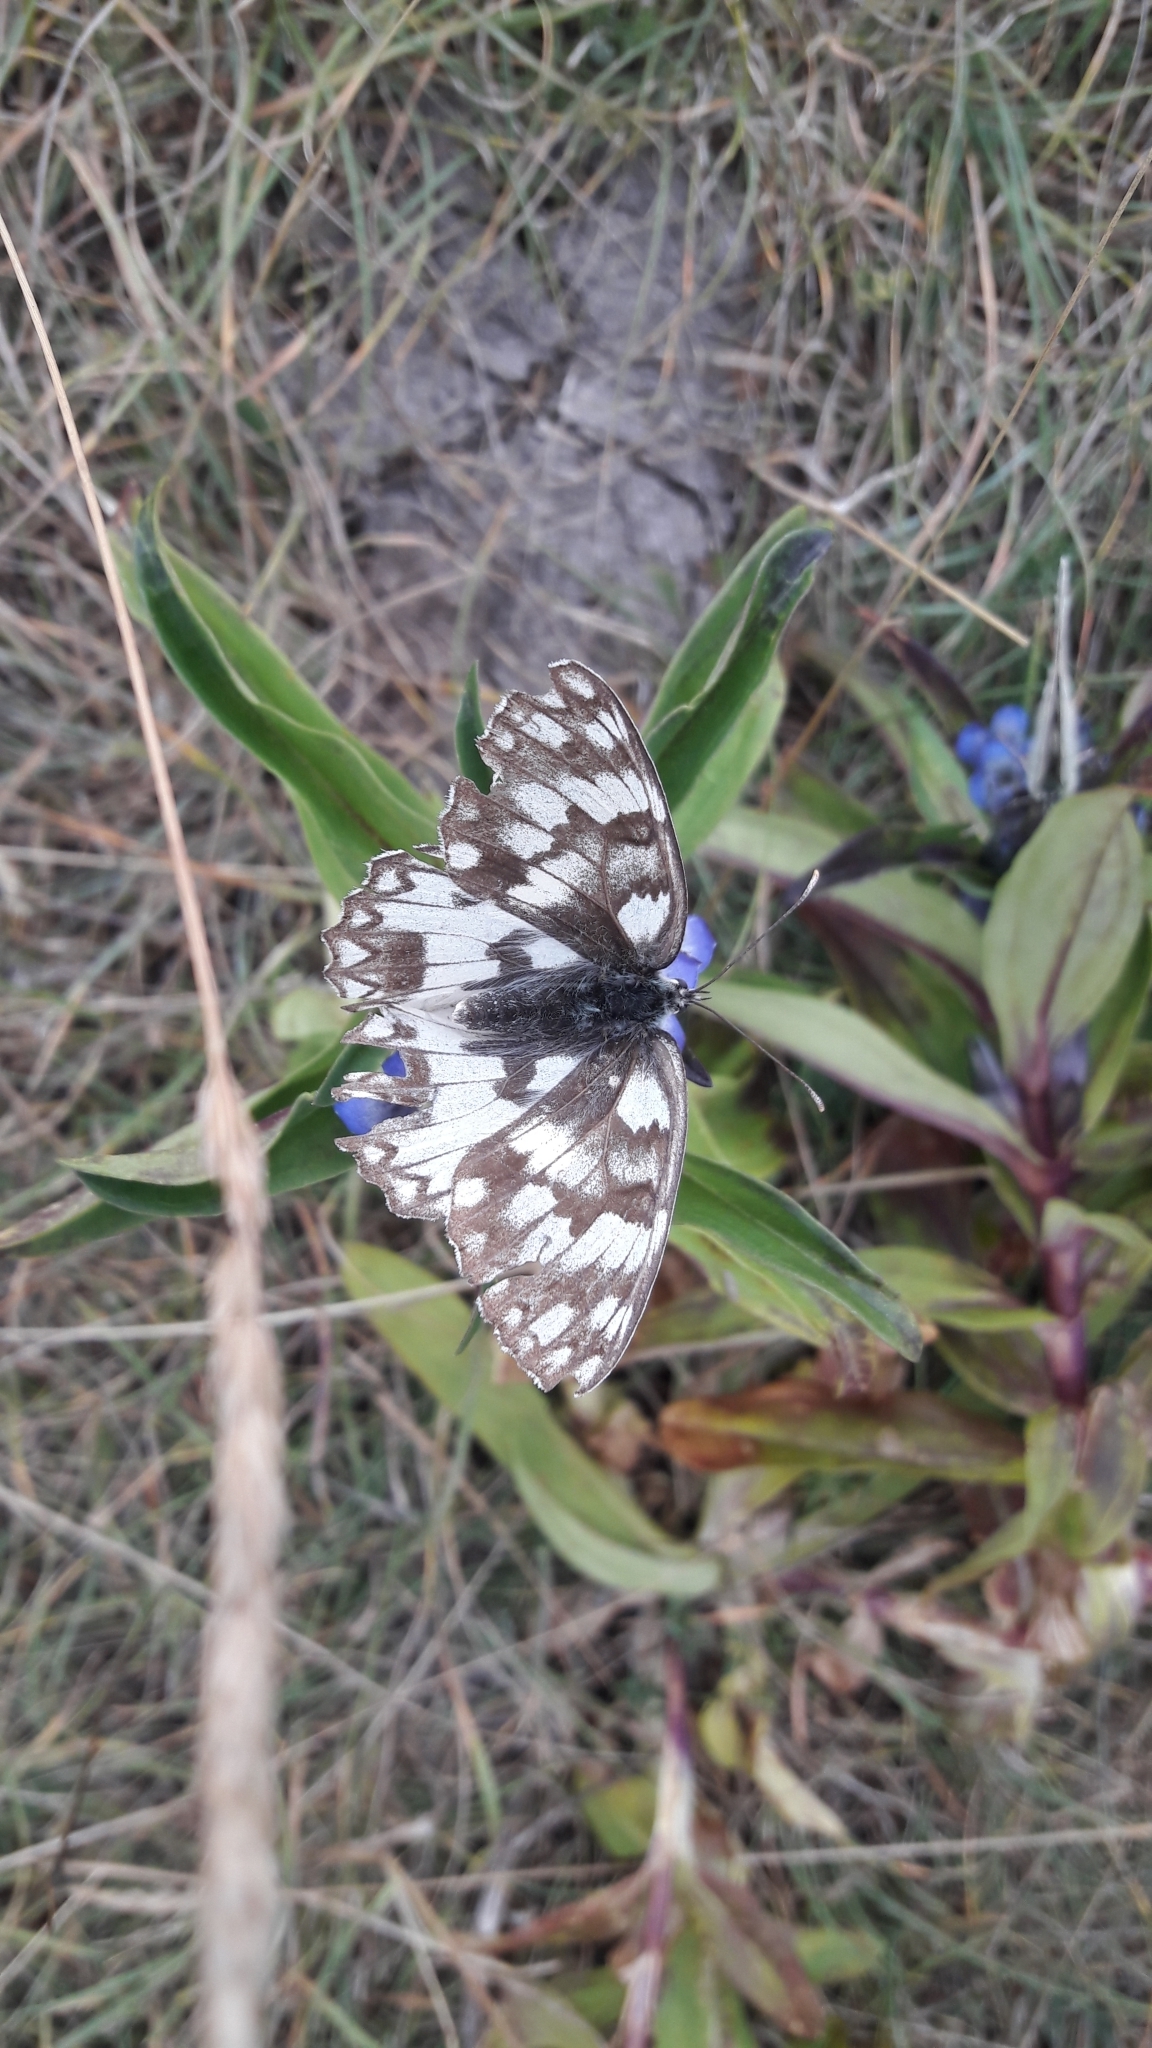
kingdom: Animalia
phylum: Arthropoda
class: Insecta
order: Lepidoptera
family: Nymphalidae
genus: Melanargia
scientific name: Melanargia japygia
